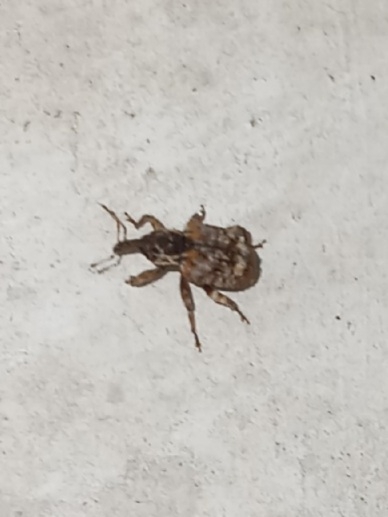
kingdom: Animalia
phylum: Arthropoda
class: Insecta
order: Coleoptera
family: Curculionidae
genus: Conotrachelus
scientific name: Conotrachelus carolinensis
